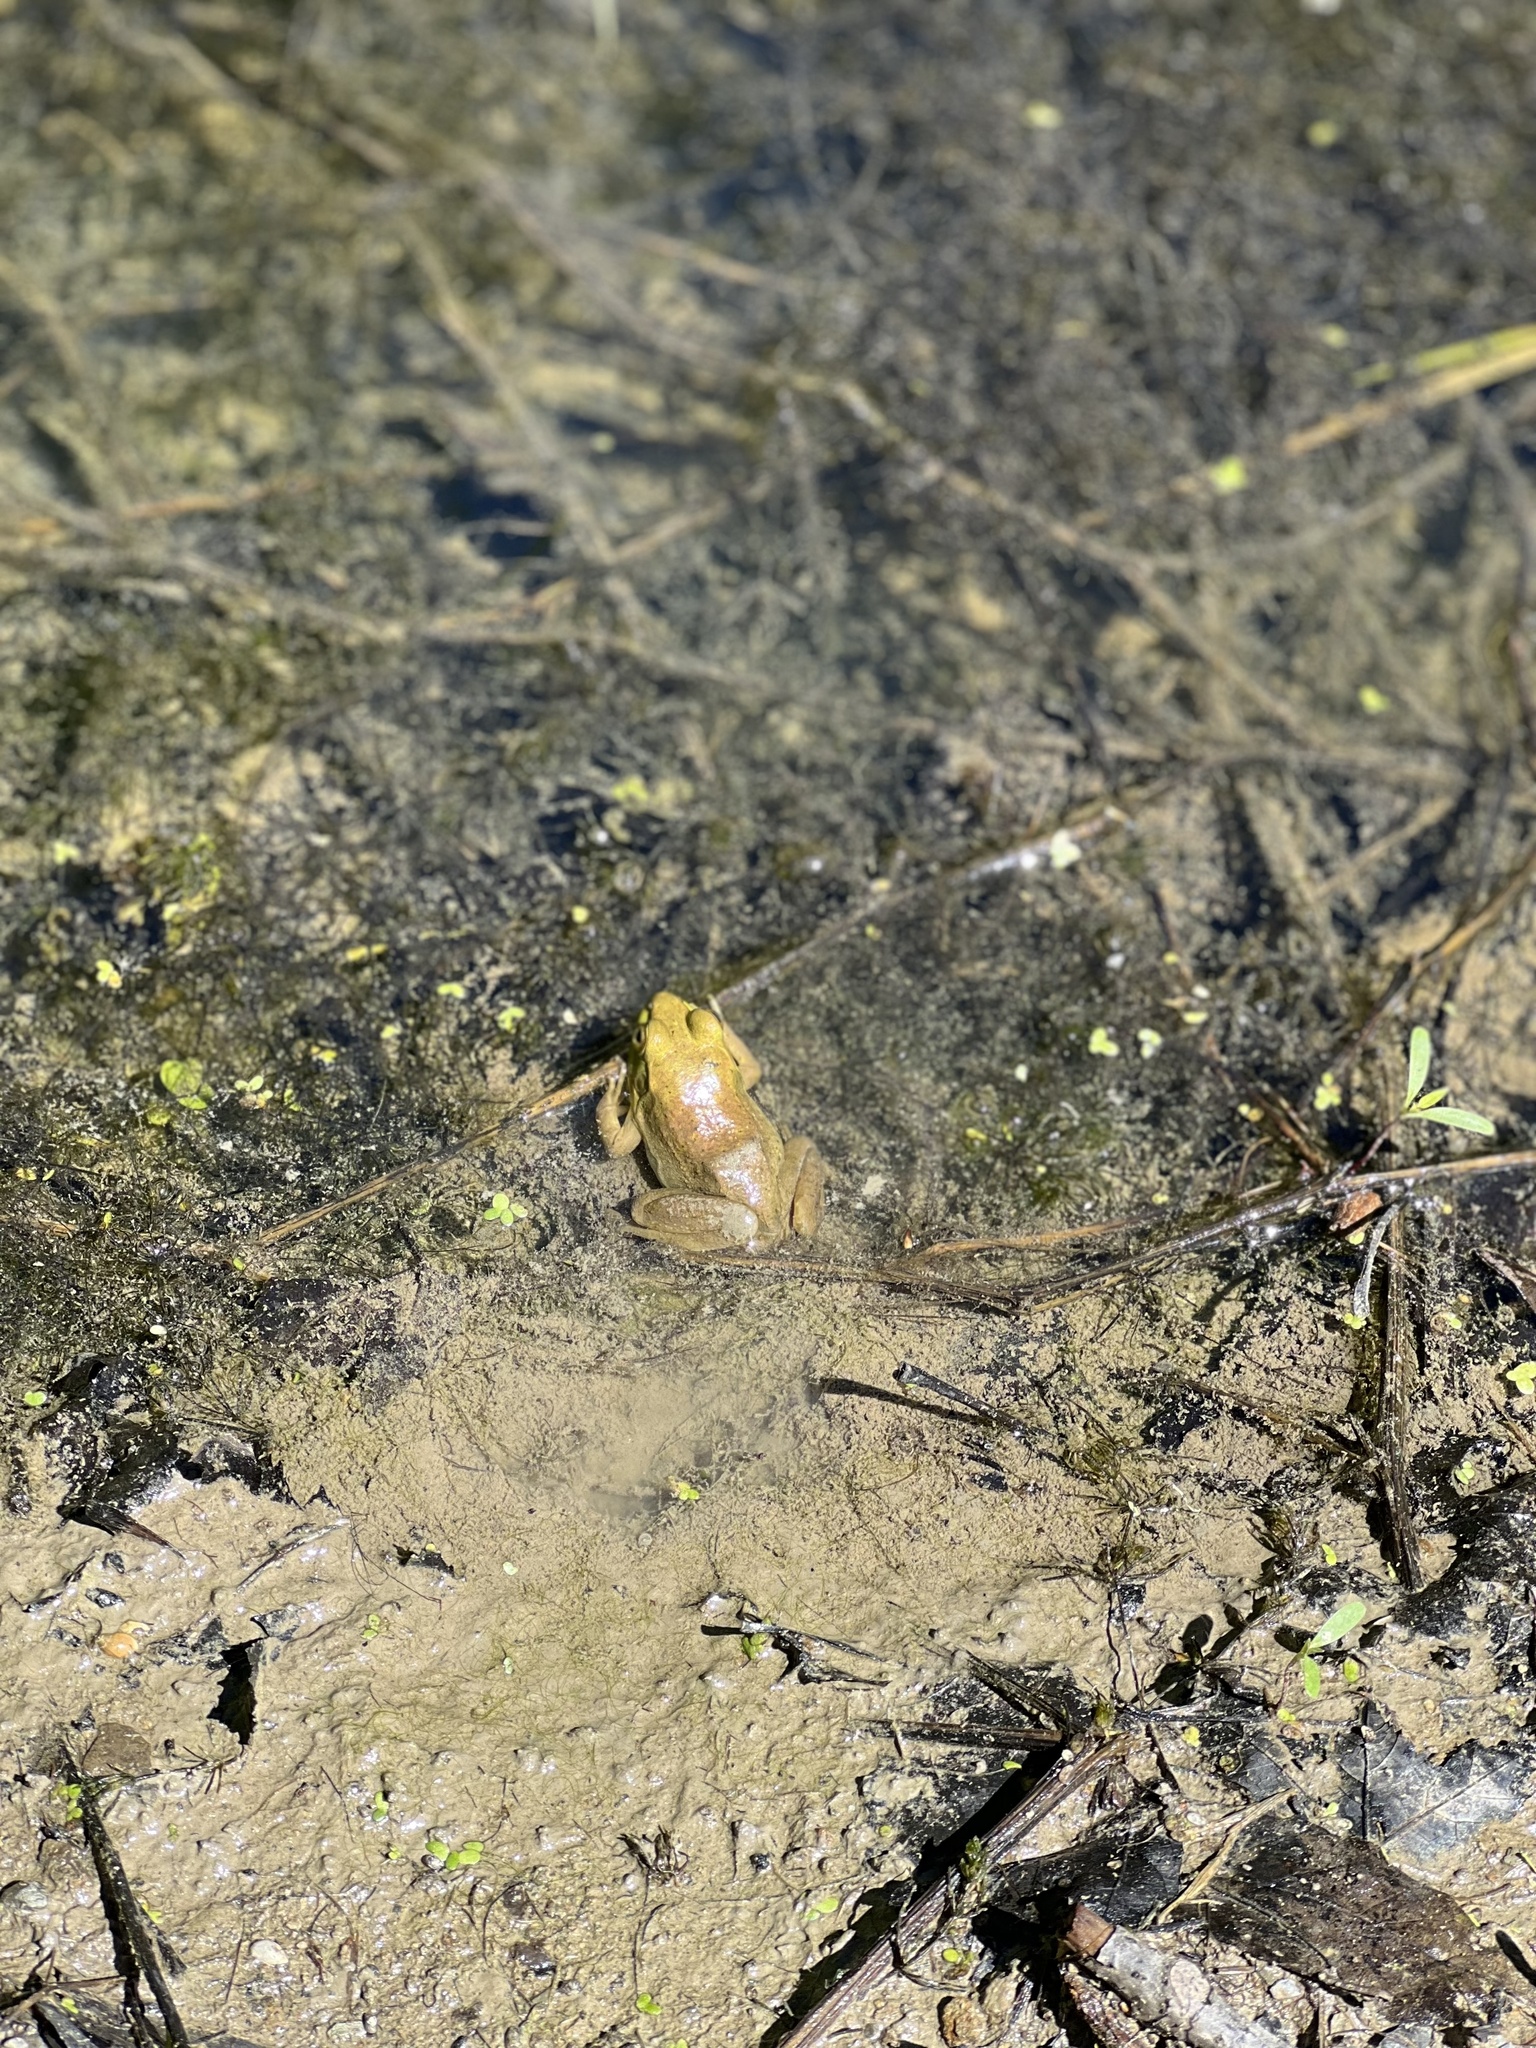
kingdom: Animalia
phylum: Chordata
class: Amphibia
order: Anura
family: Ranidae
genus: Lithobates
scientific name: Lithobates clamitans
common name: Green frog
